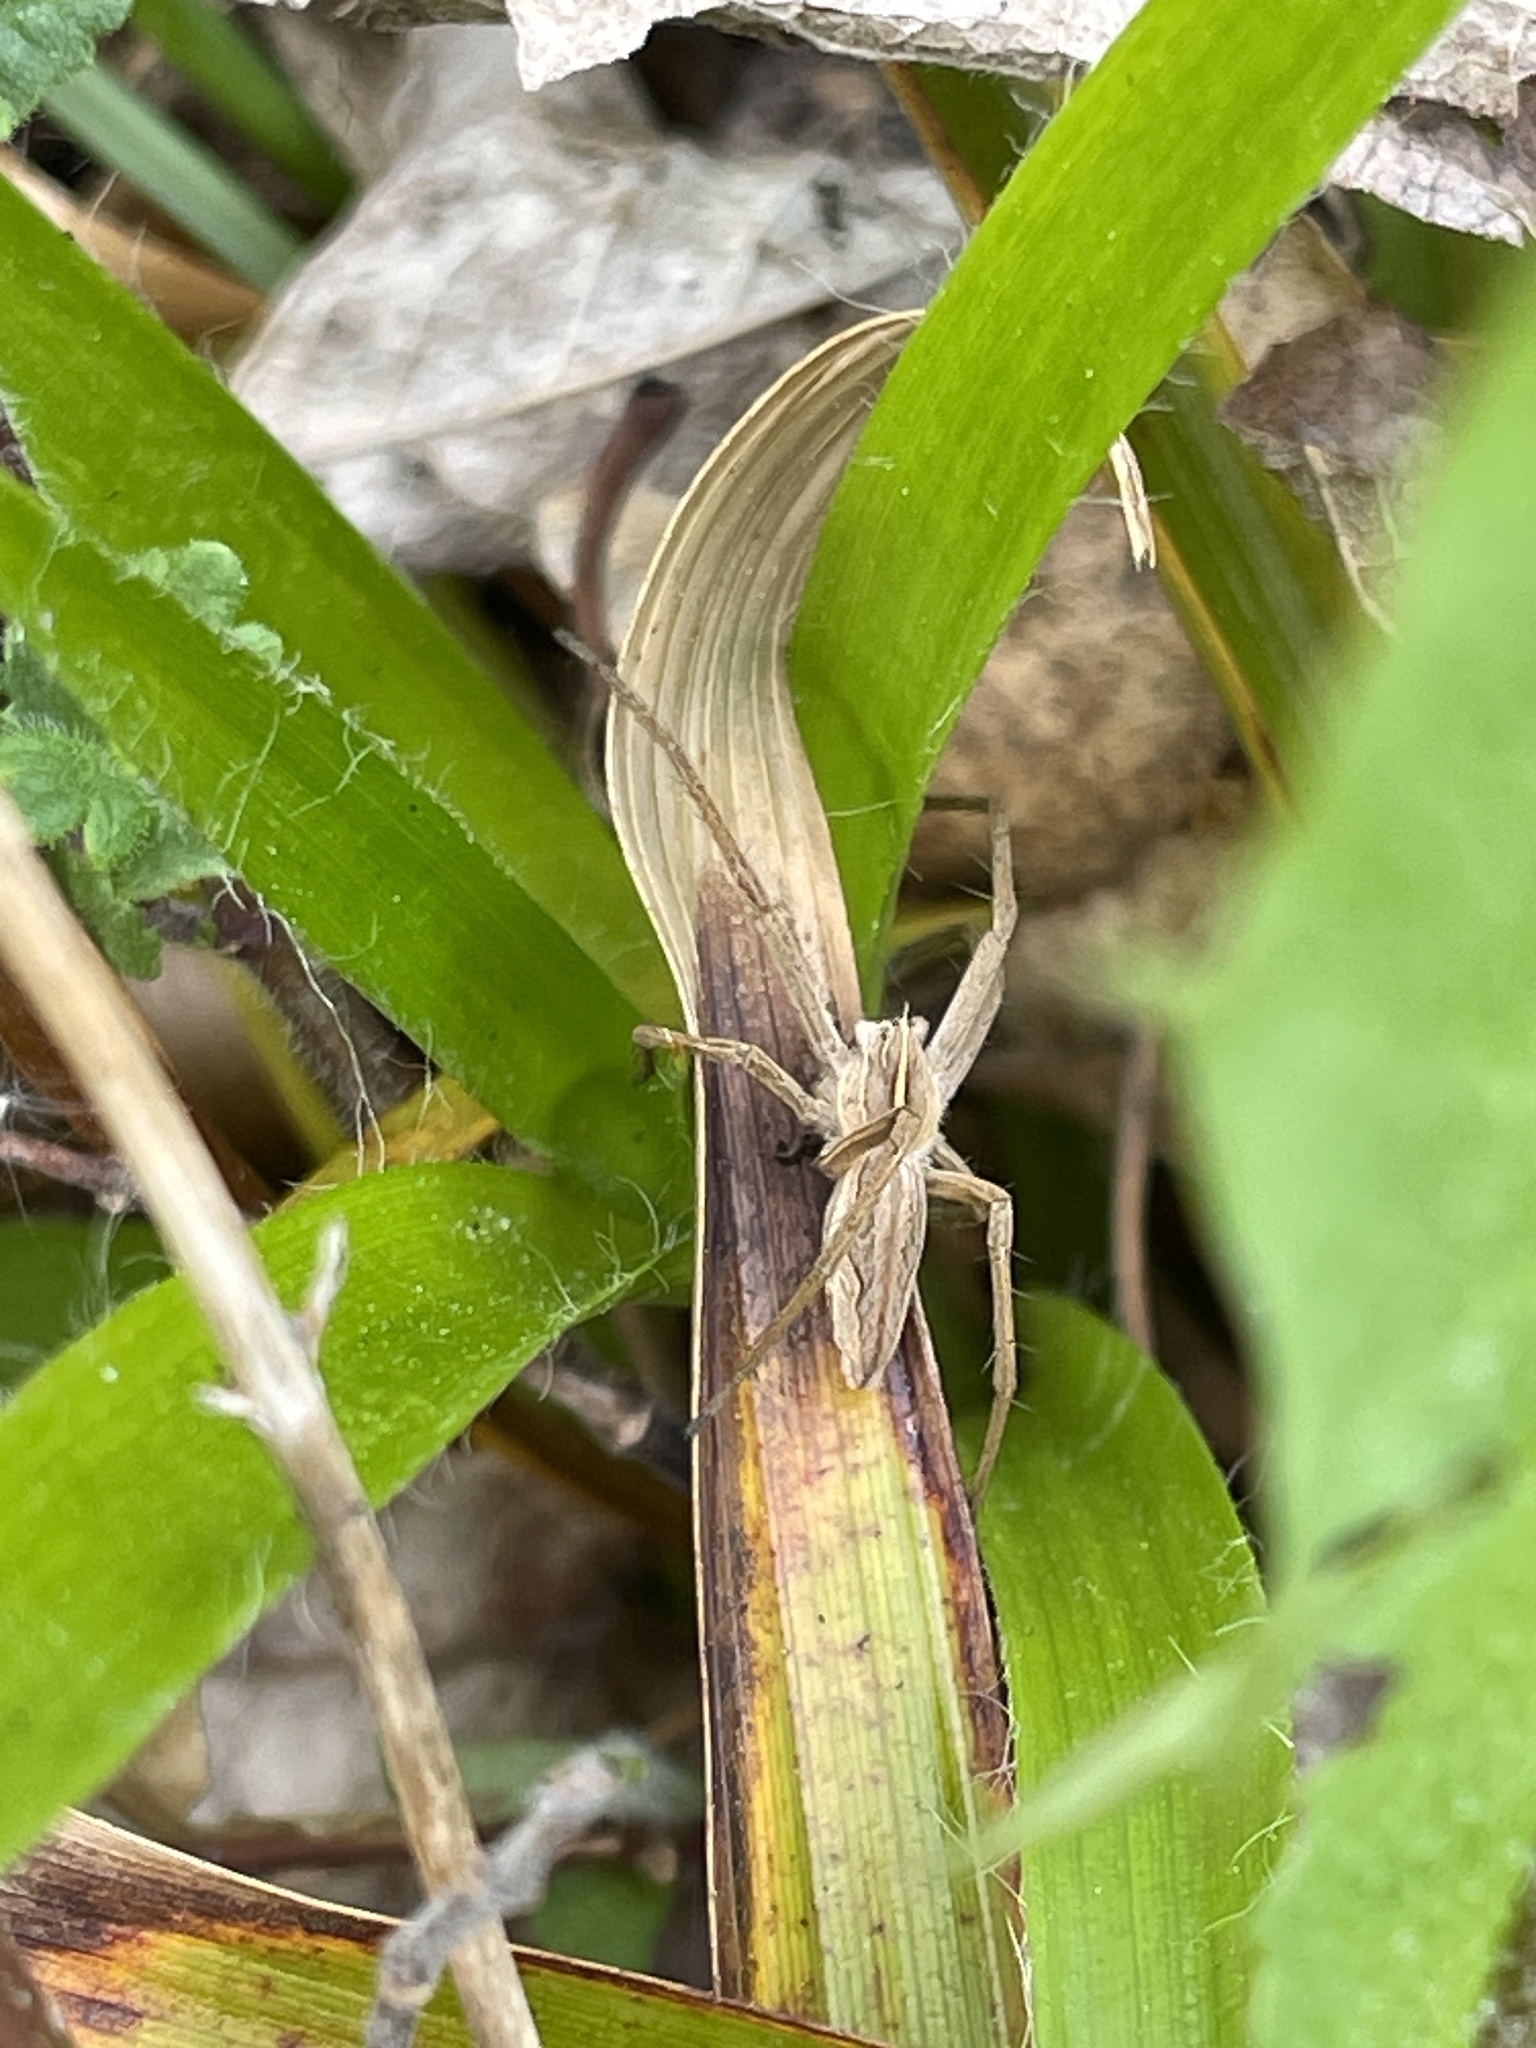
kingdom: Animalia
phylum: Arthropoda
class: Arachnida
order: Araneae
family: Pisauridae
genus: Pisaura
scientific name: Pisaura mirabilis
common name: Tent spider
